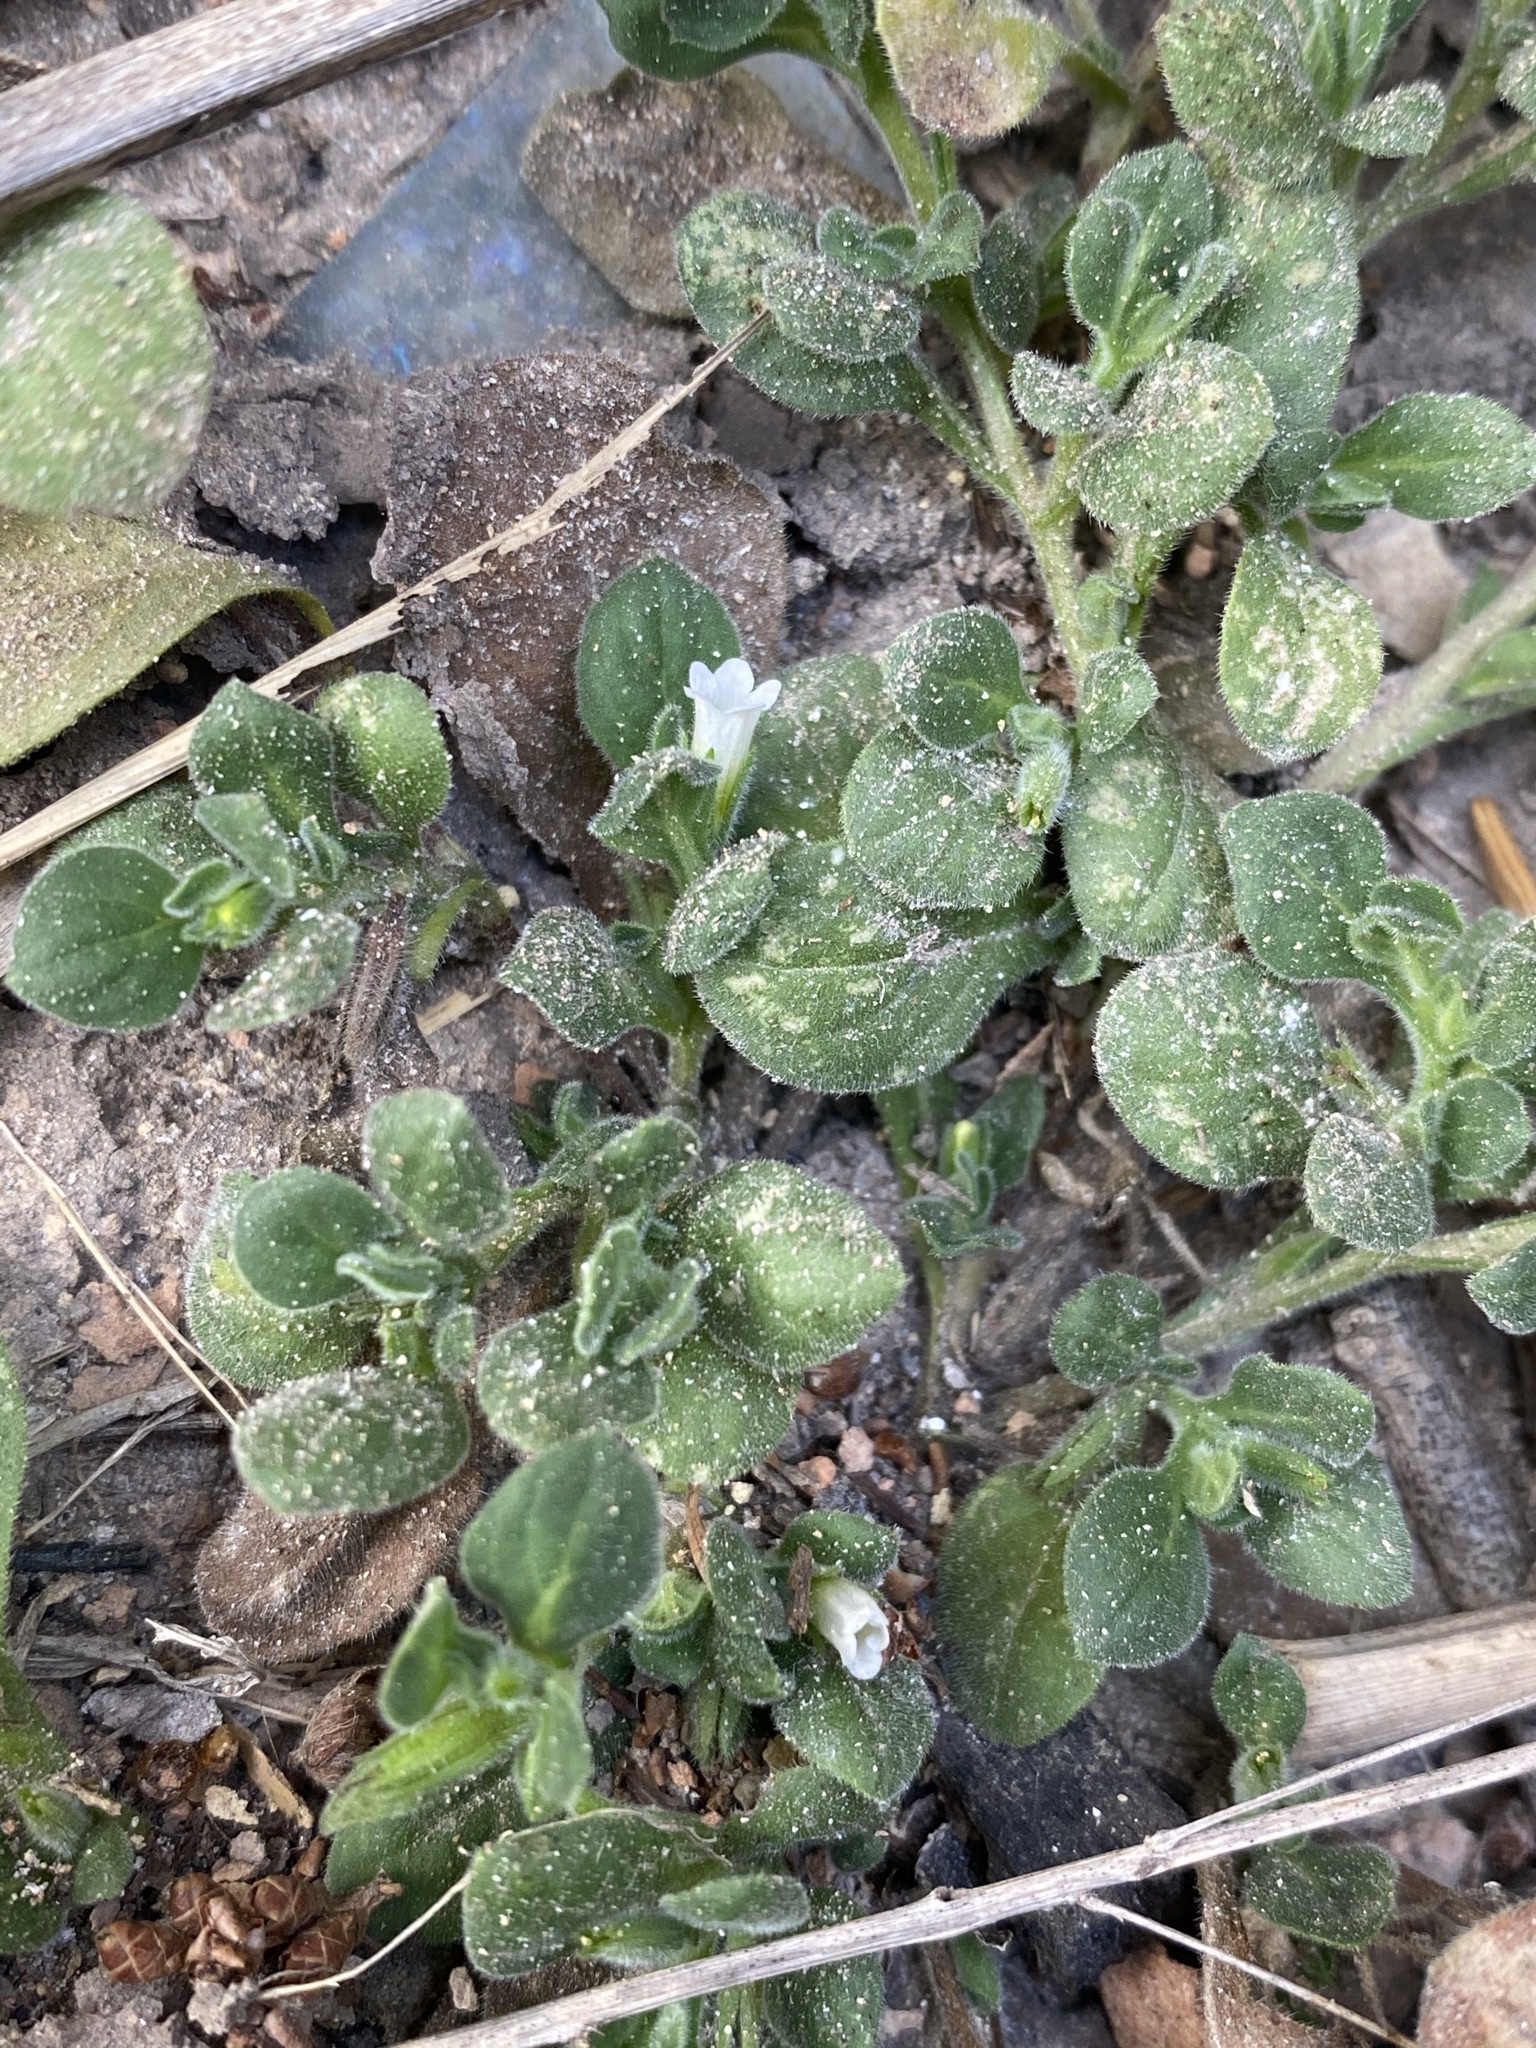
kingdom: Plantae
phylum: Tracheophyta
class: Magnoliopsida
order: Boraginales
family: Namaceae
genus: Nama
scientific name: Nama jamaicensis
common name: Jamaicanweed
